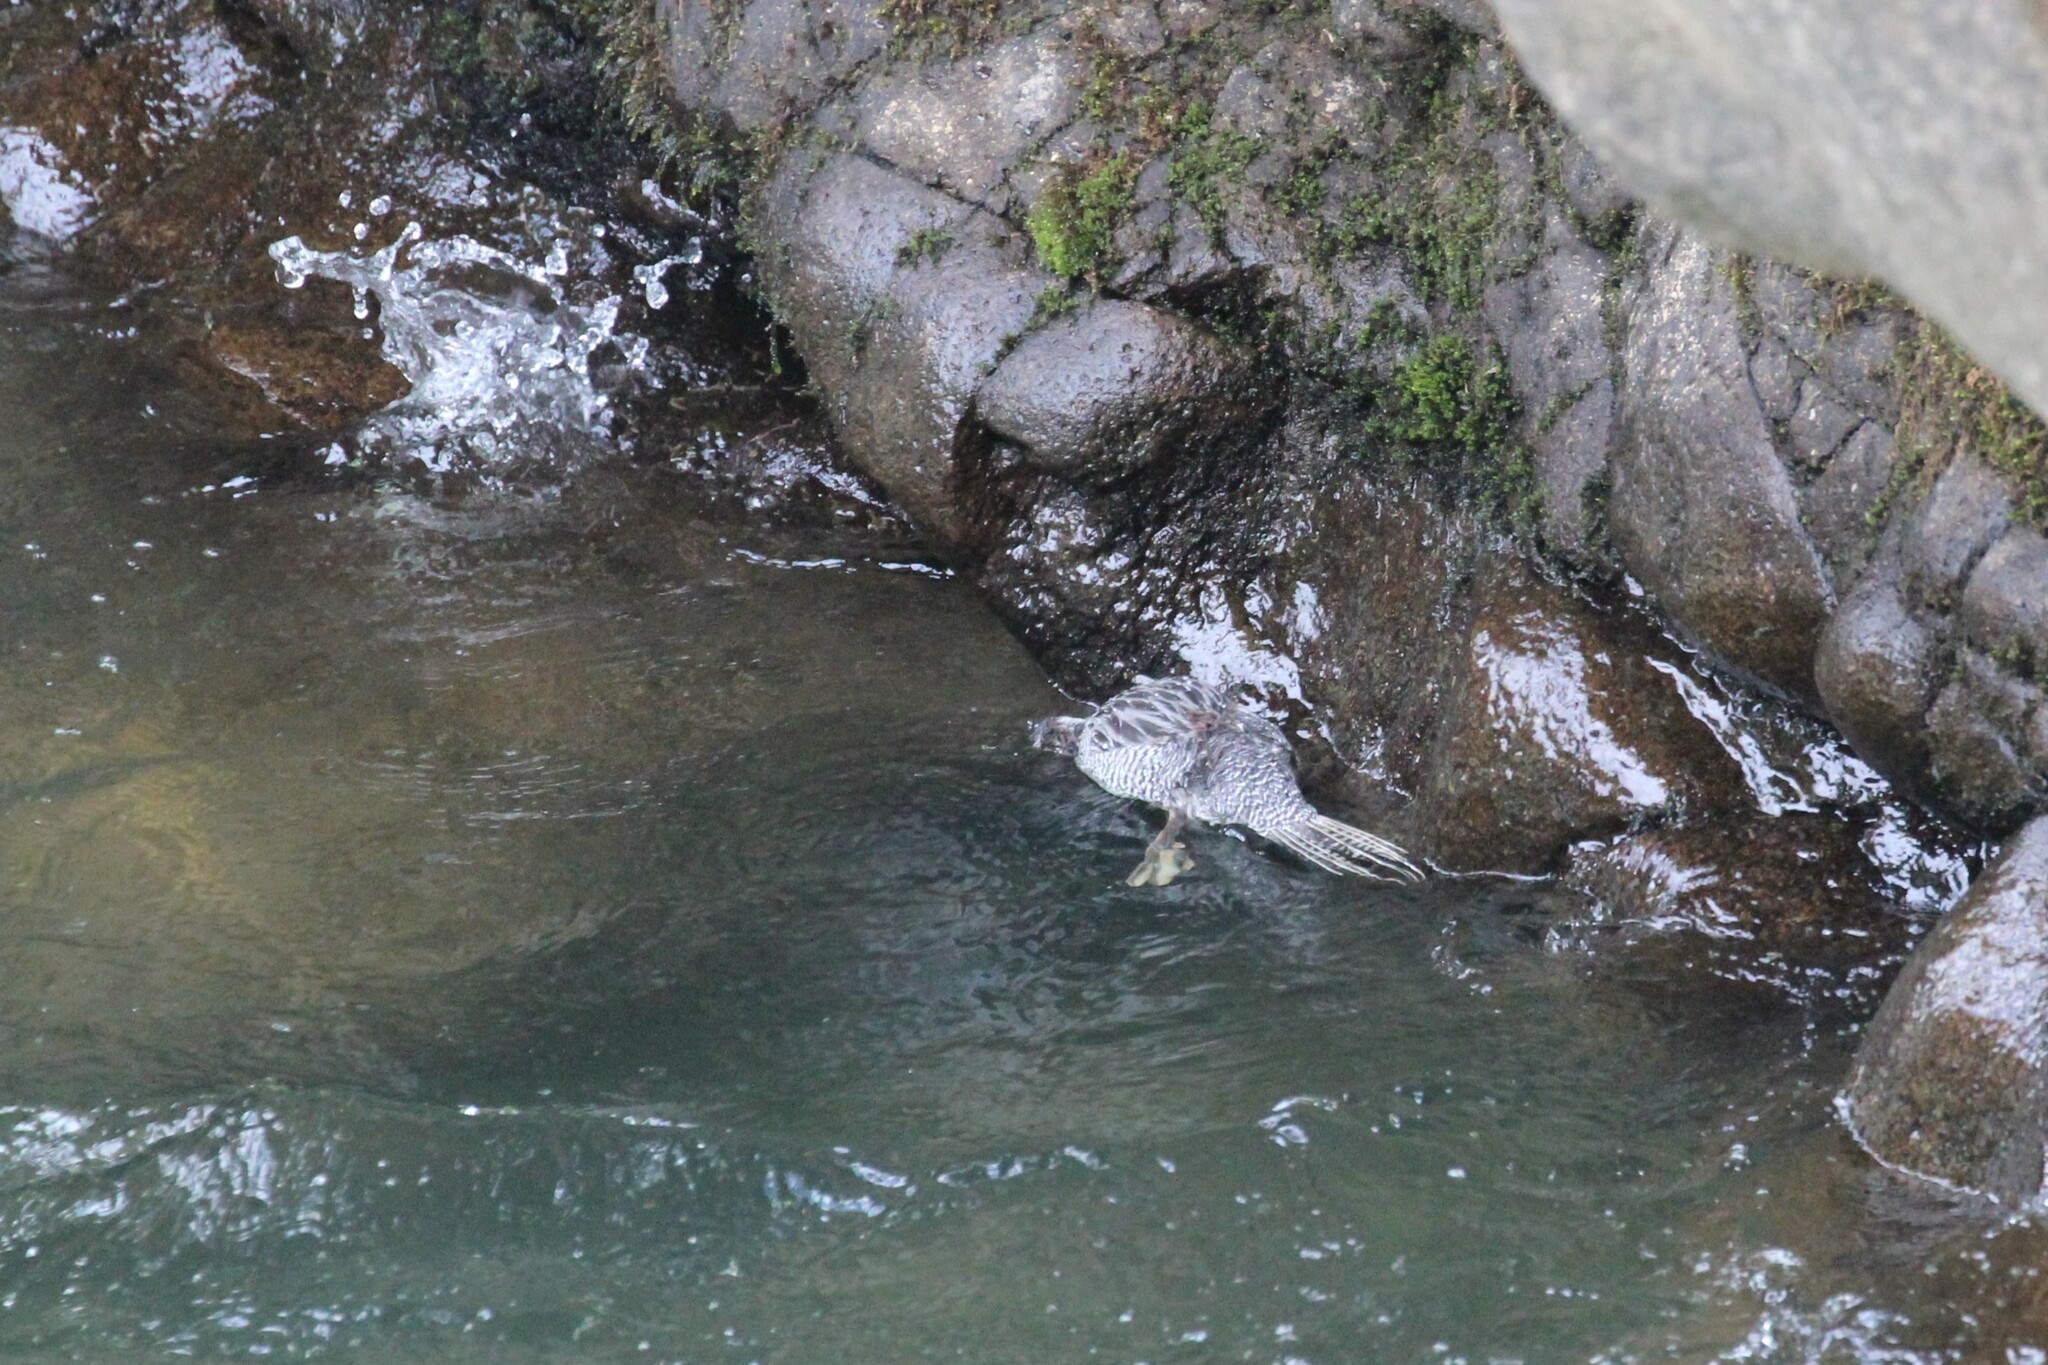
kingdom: Animalia
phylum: Chordata
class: Aves
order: Anseriformes
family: Anatidae
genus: Merganetta
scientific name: Merganetta armata
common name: Torrent duck
